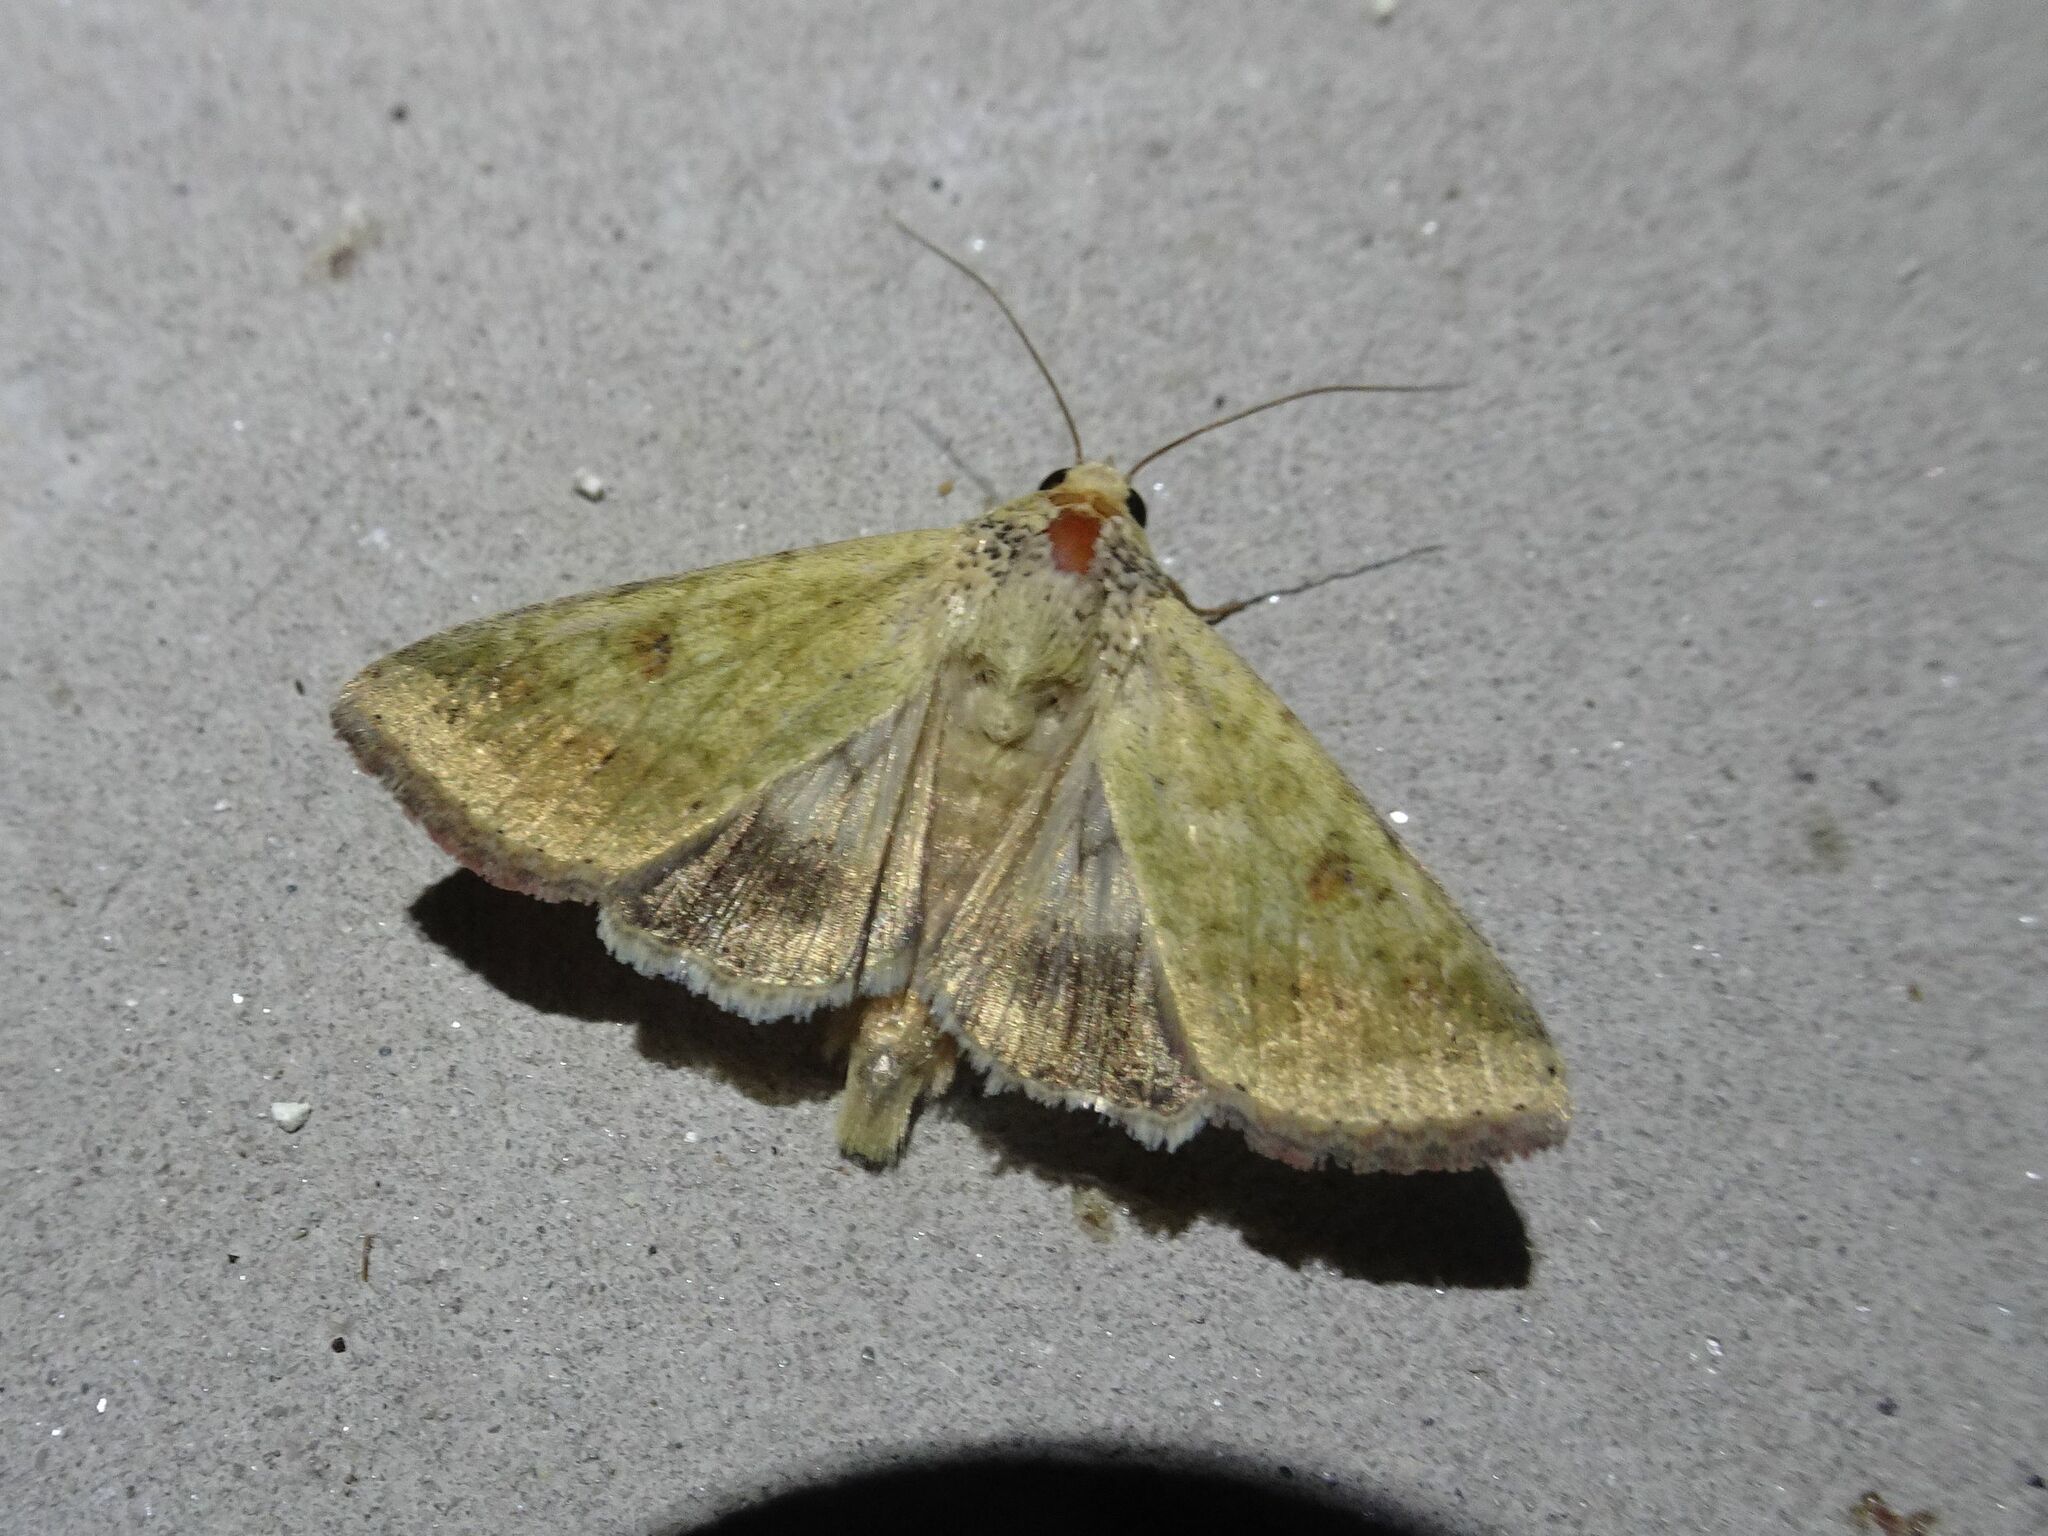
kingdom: Animalia
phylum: Arthropoda
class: Insecta
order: Lepidoptera
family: Noctuidae
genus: Helicoverpa
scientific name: Helicoverpa armigera
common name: Cotton bollworm
